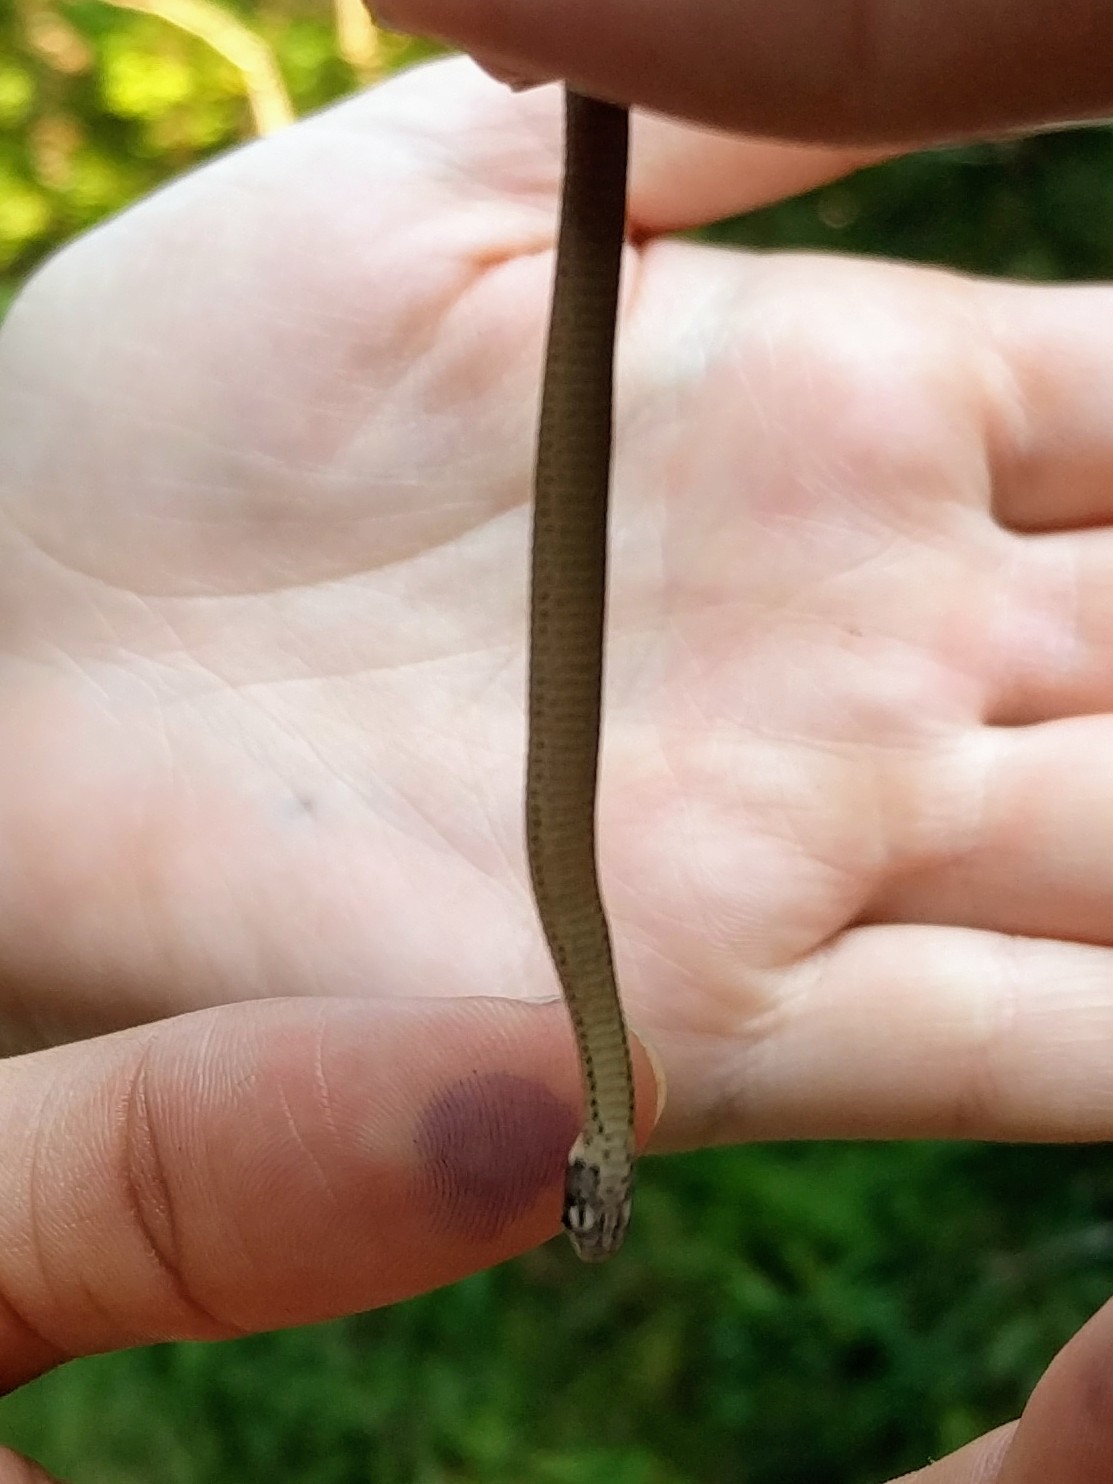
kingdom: Animalia
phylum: Chordata
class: Squamata
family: Colubridae
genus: Storeria
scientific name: Storeria occipitomaculata
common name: Redbelly snake
